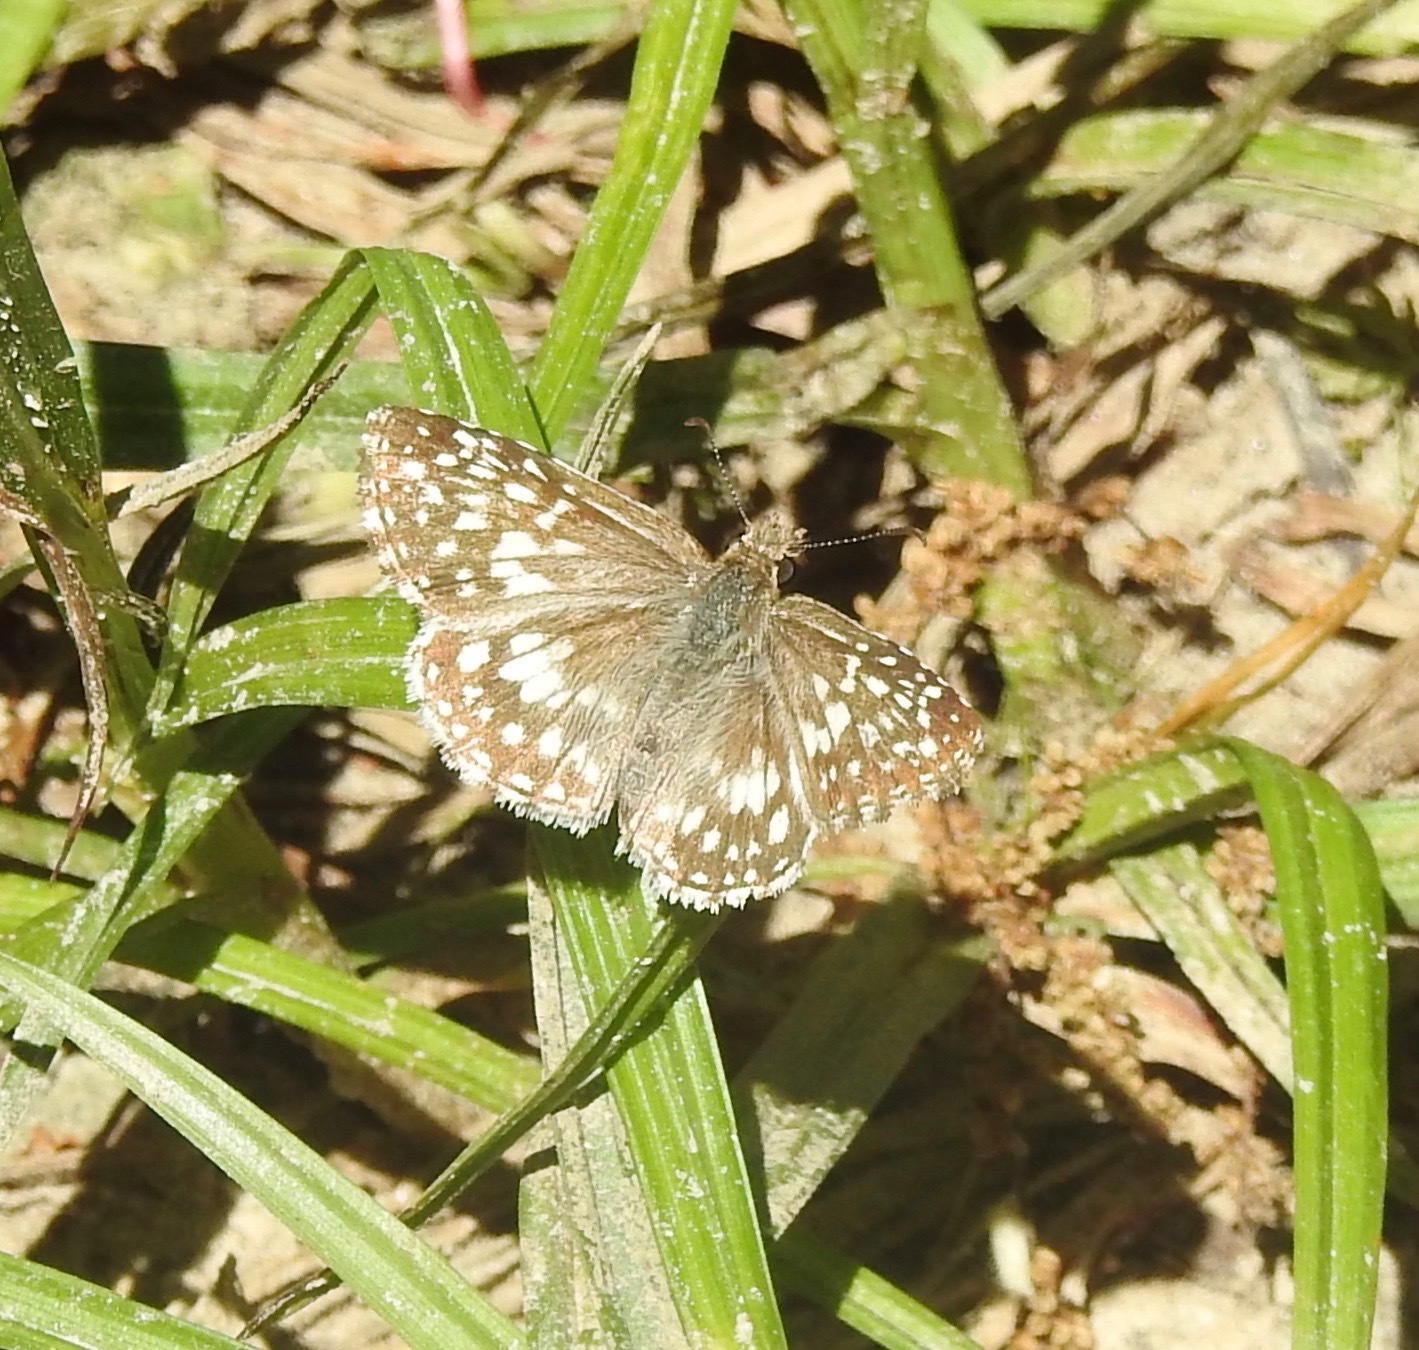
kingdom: Animalia
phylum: Arthropoda
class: Insecta
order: Lepidoptera
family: Hesperiidae
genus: Pyrgus
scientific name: Pyrgus oileus
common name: Tropical checkered-skipper
